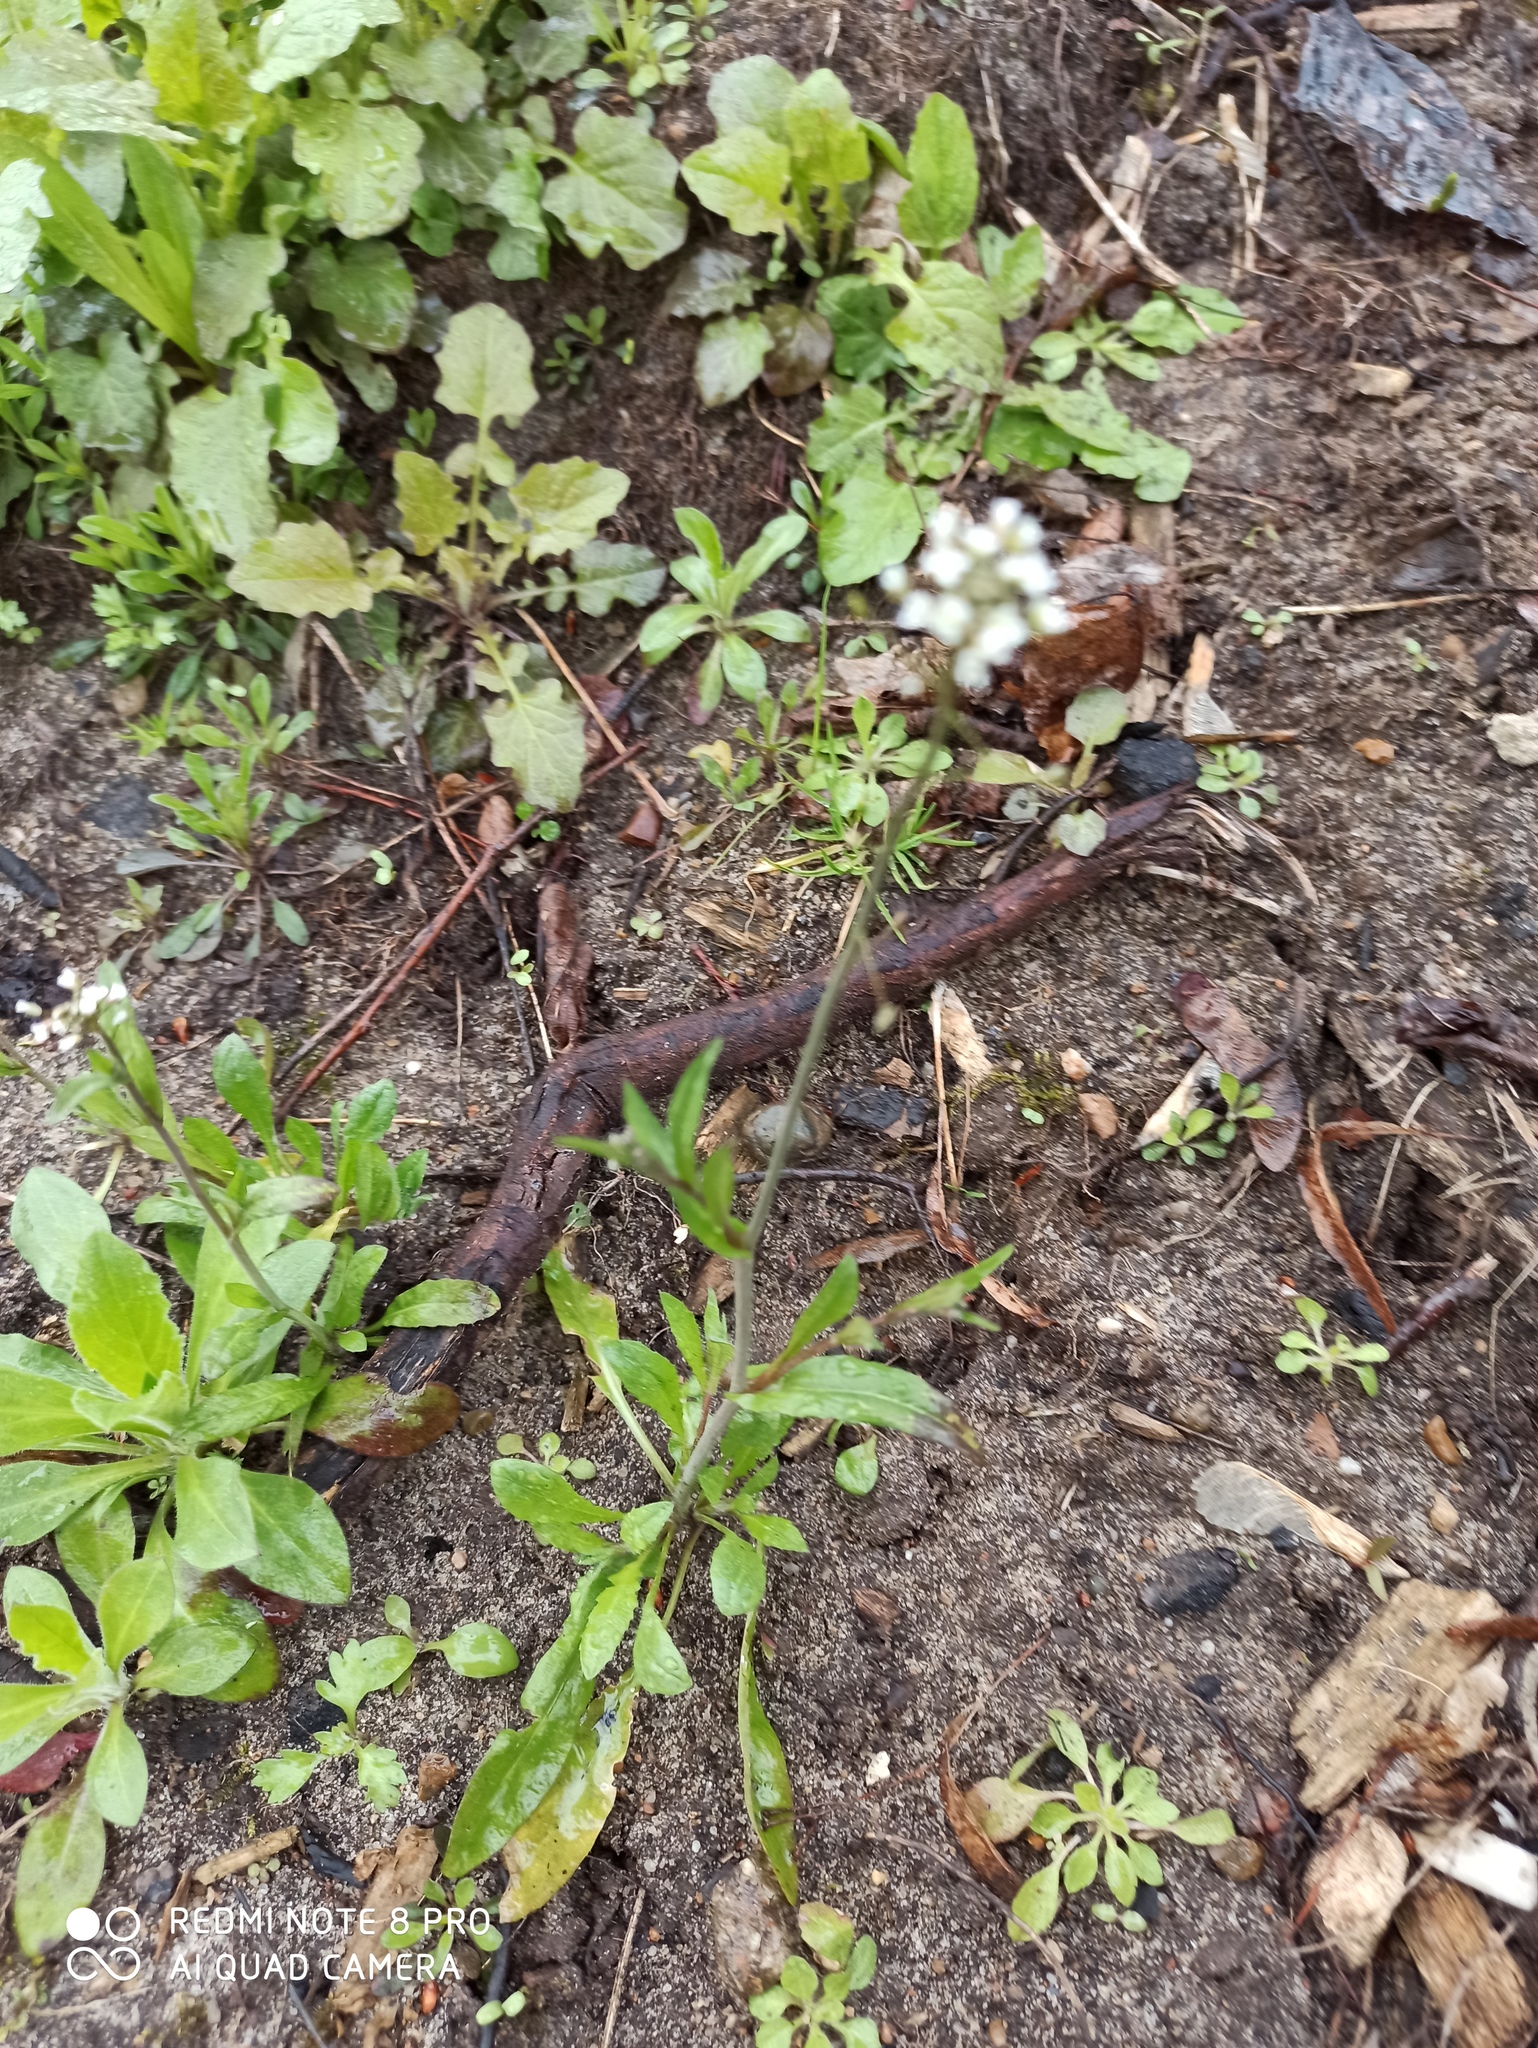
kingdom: Plantae
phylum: Tracheophyta
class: Magnoliopsida
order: Brassicales
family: Brassicaceae
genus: Capsella
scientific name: Capsella bursa-pastoris
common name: Shepherd's purse
